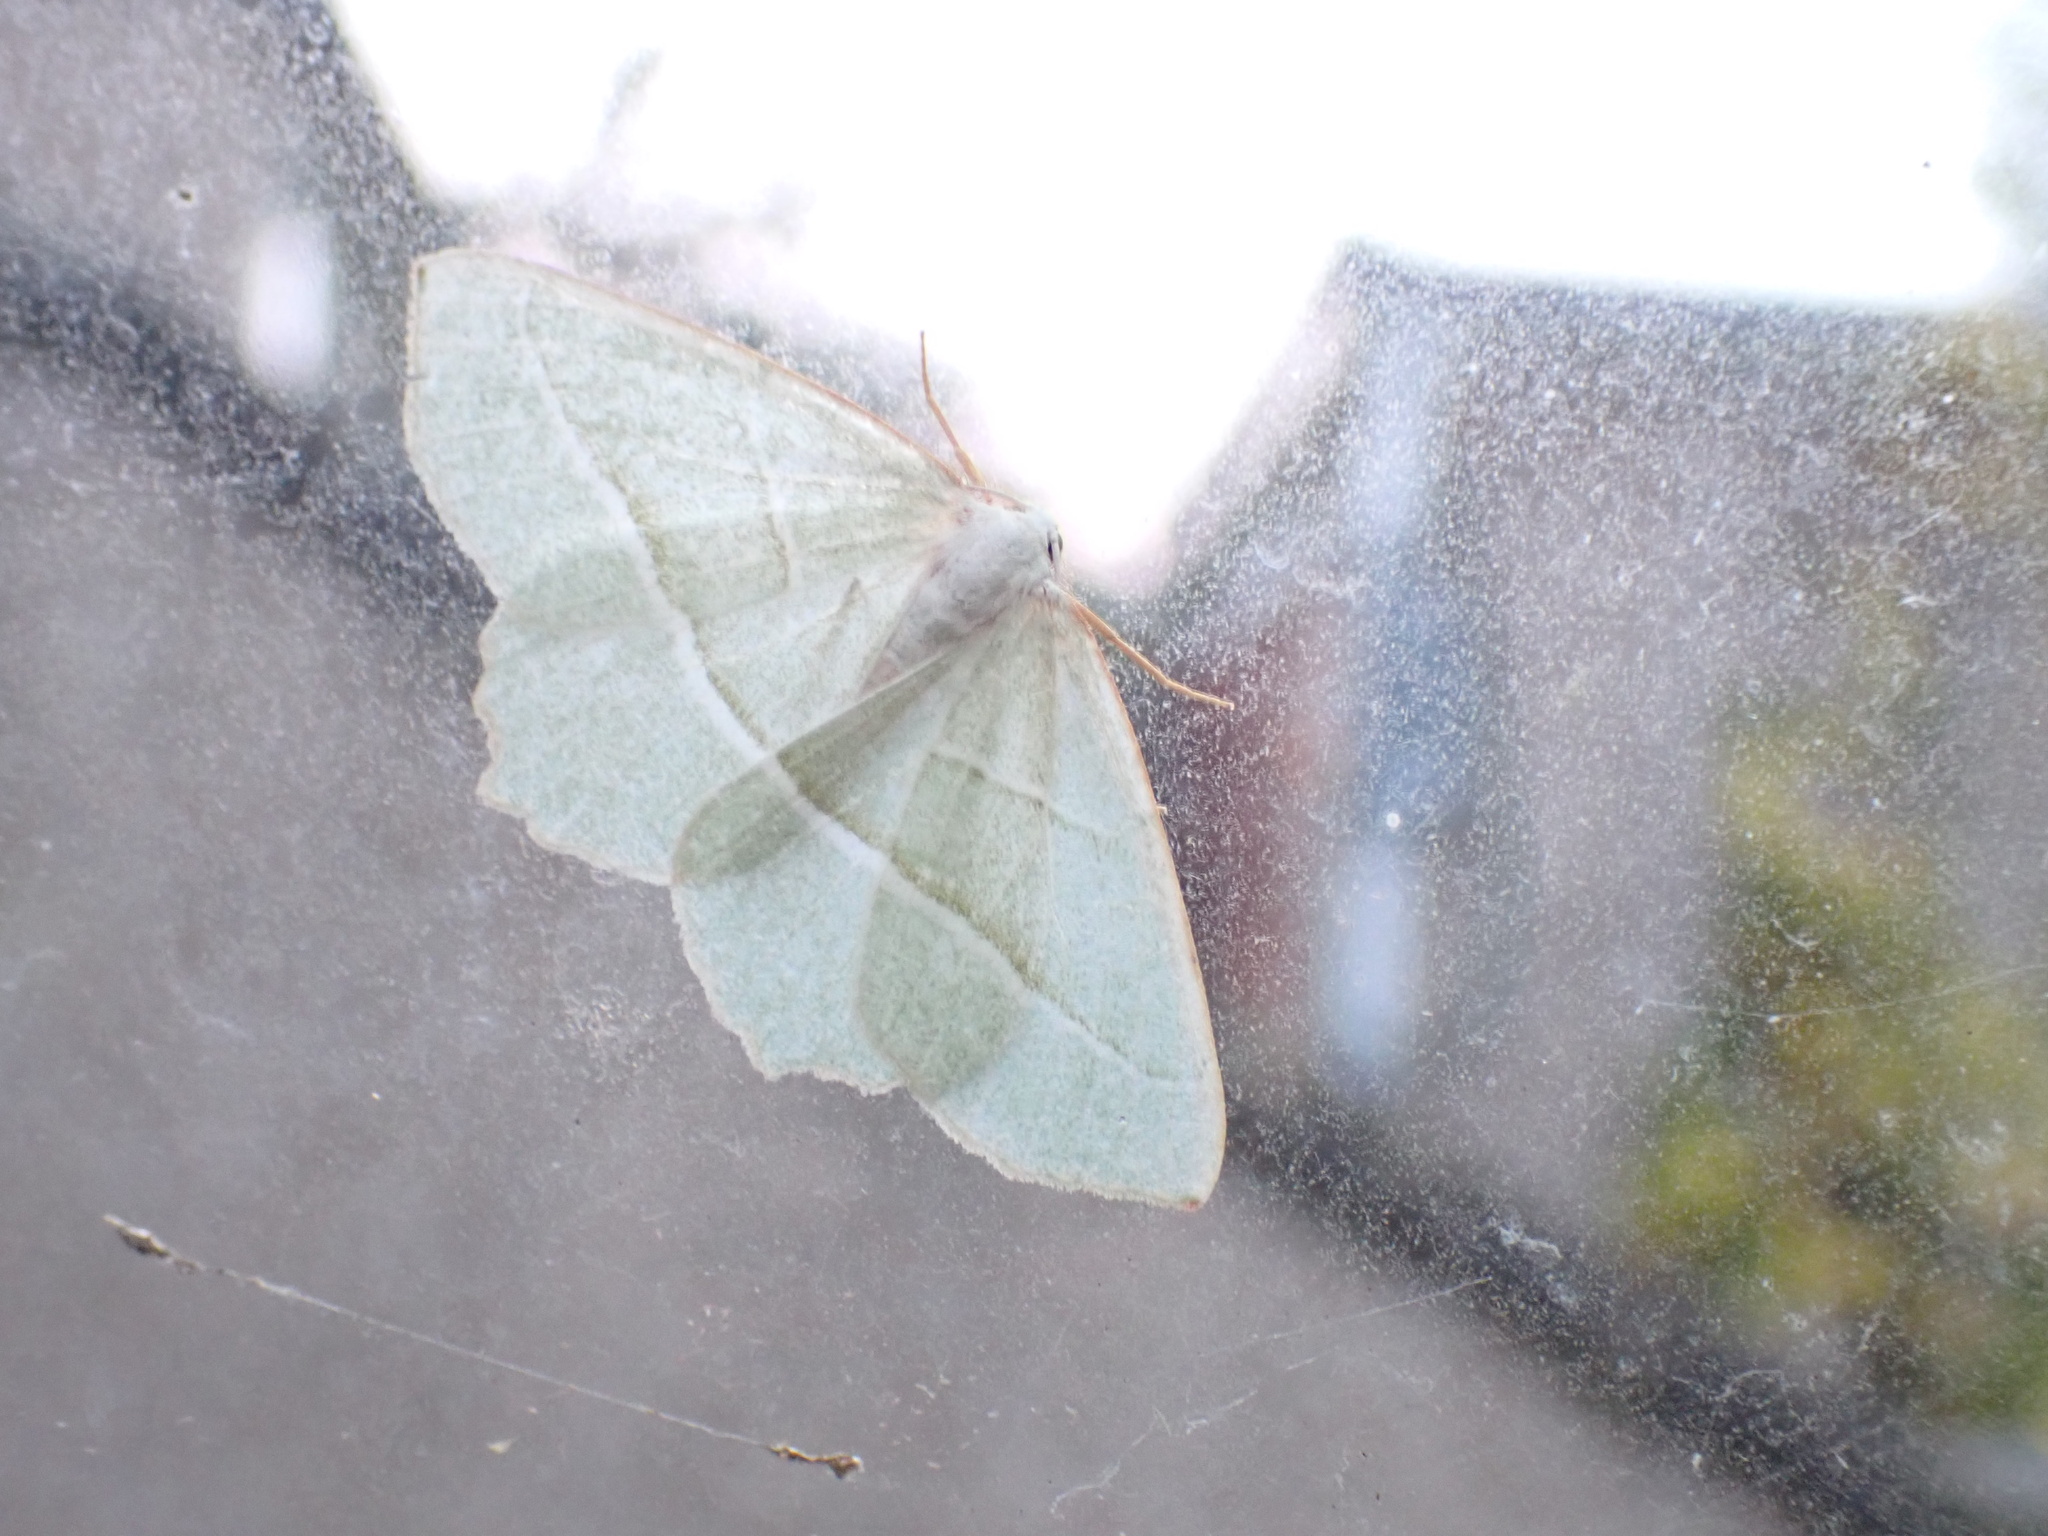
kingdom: Animalia
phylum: Arthropoda
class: Insecta
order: Lepidoptera
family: Geometridae
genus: Campaea
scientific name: Campaea margaritaria
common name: Light emerald
